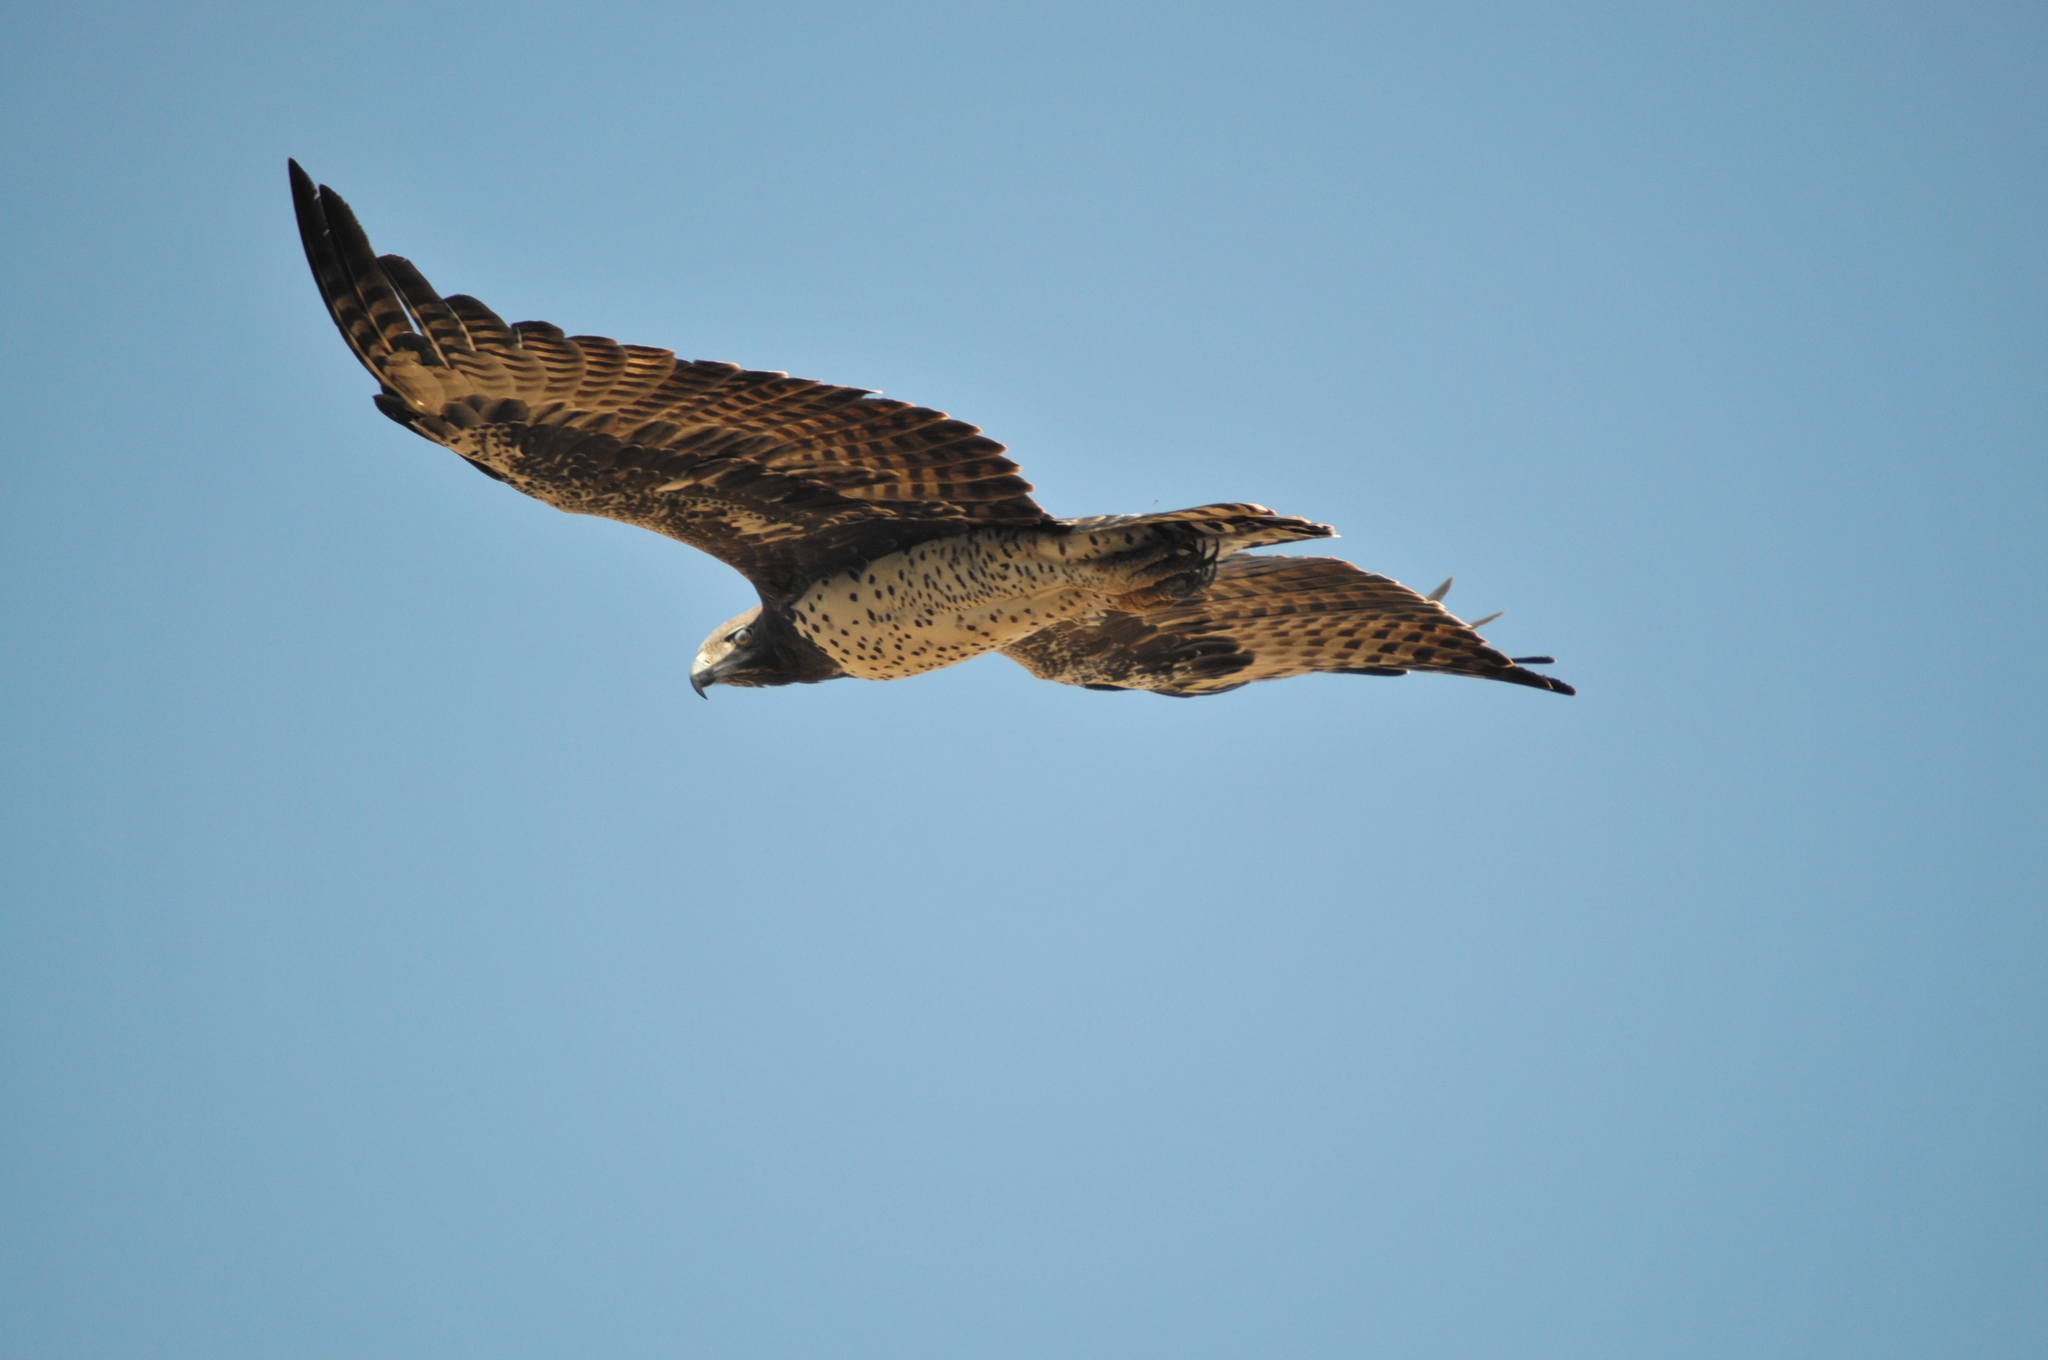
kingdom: Animalia
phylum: Chordata
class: Aves
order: Accipitriformes
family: Accipitridae
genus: Polemaetus
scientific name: Polemaetus bellicosus
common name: Martial eagle
